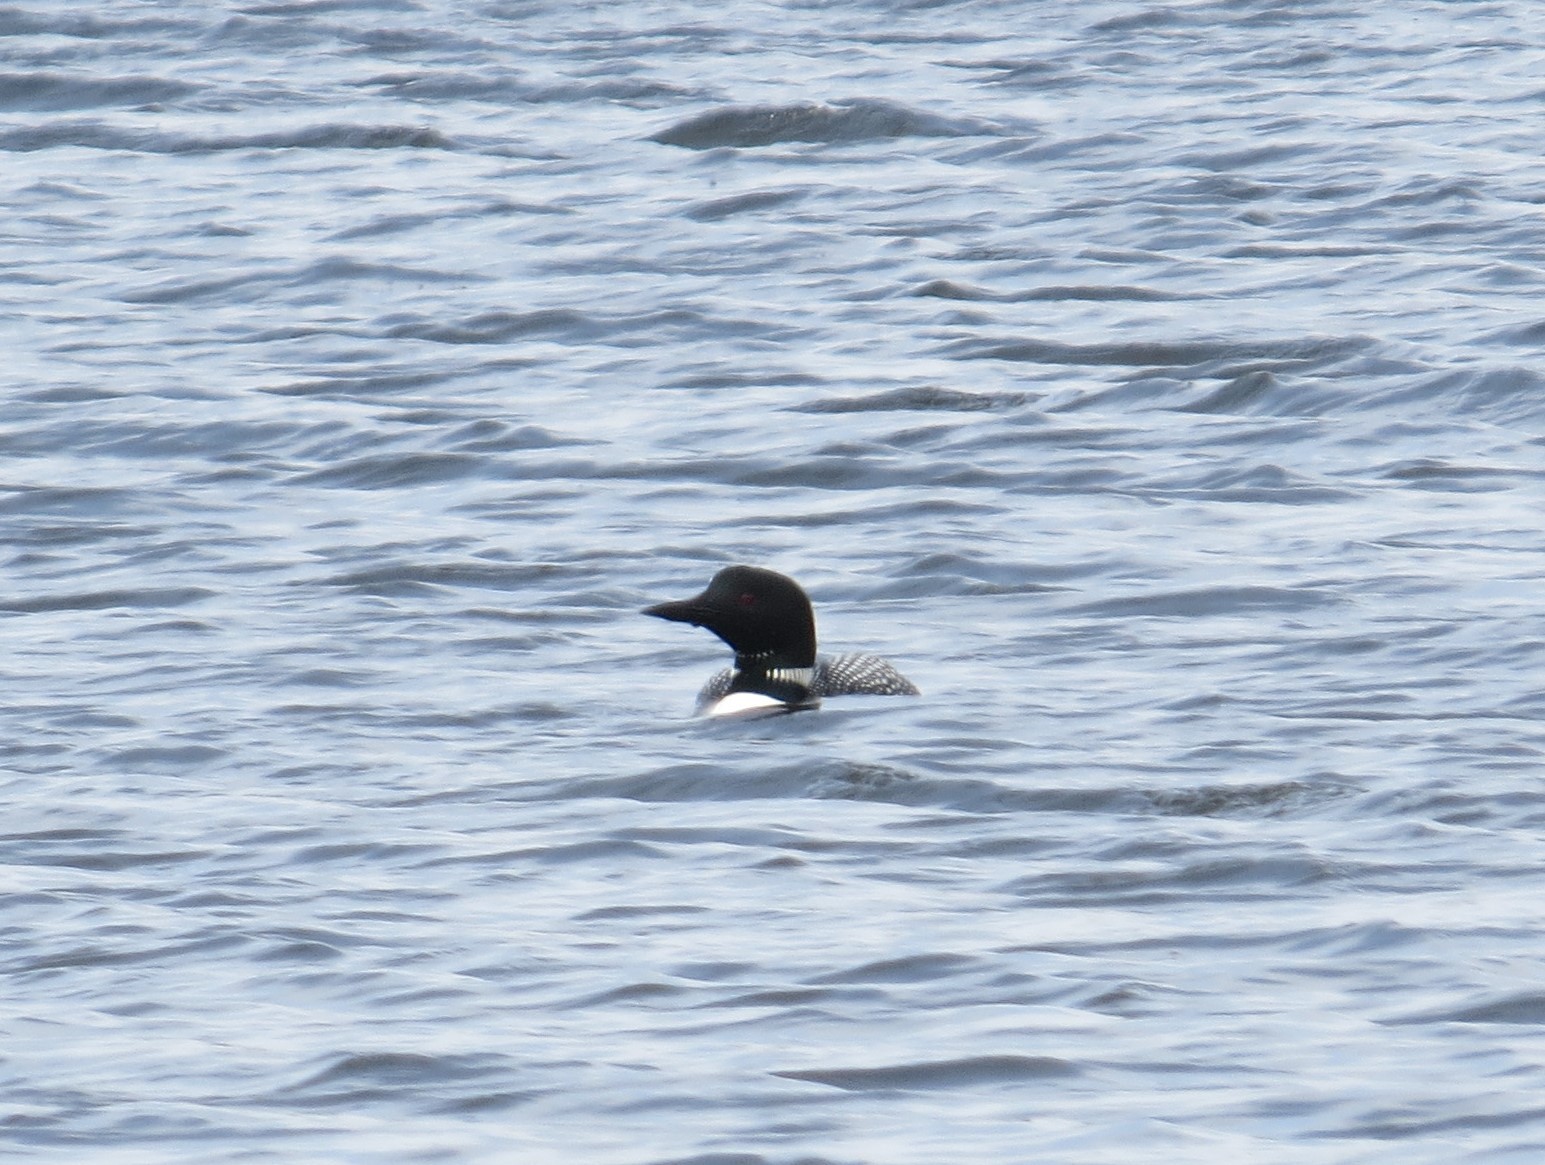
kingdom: Animalia
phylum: Chordata
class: Aves
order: Gaviiformes
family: Gaviidae
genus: Gavia
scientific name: Gavia immer
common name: Common loon
